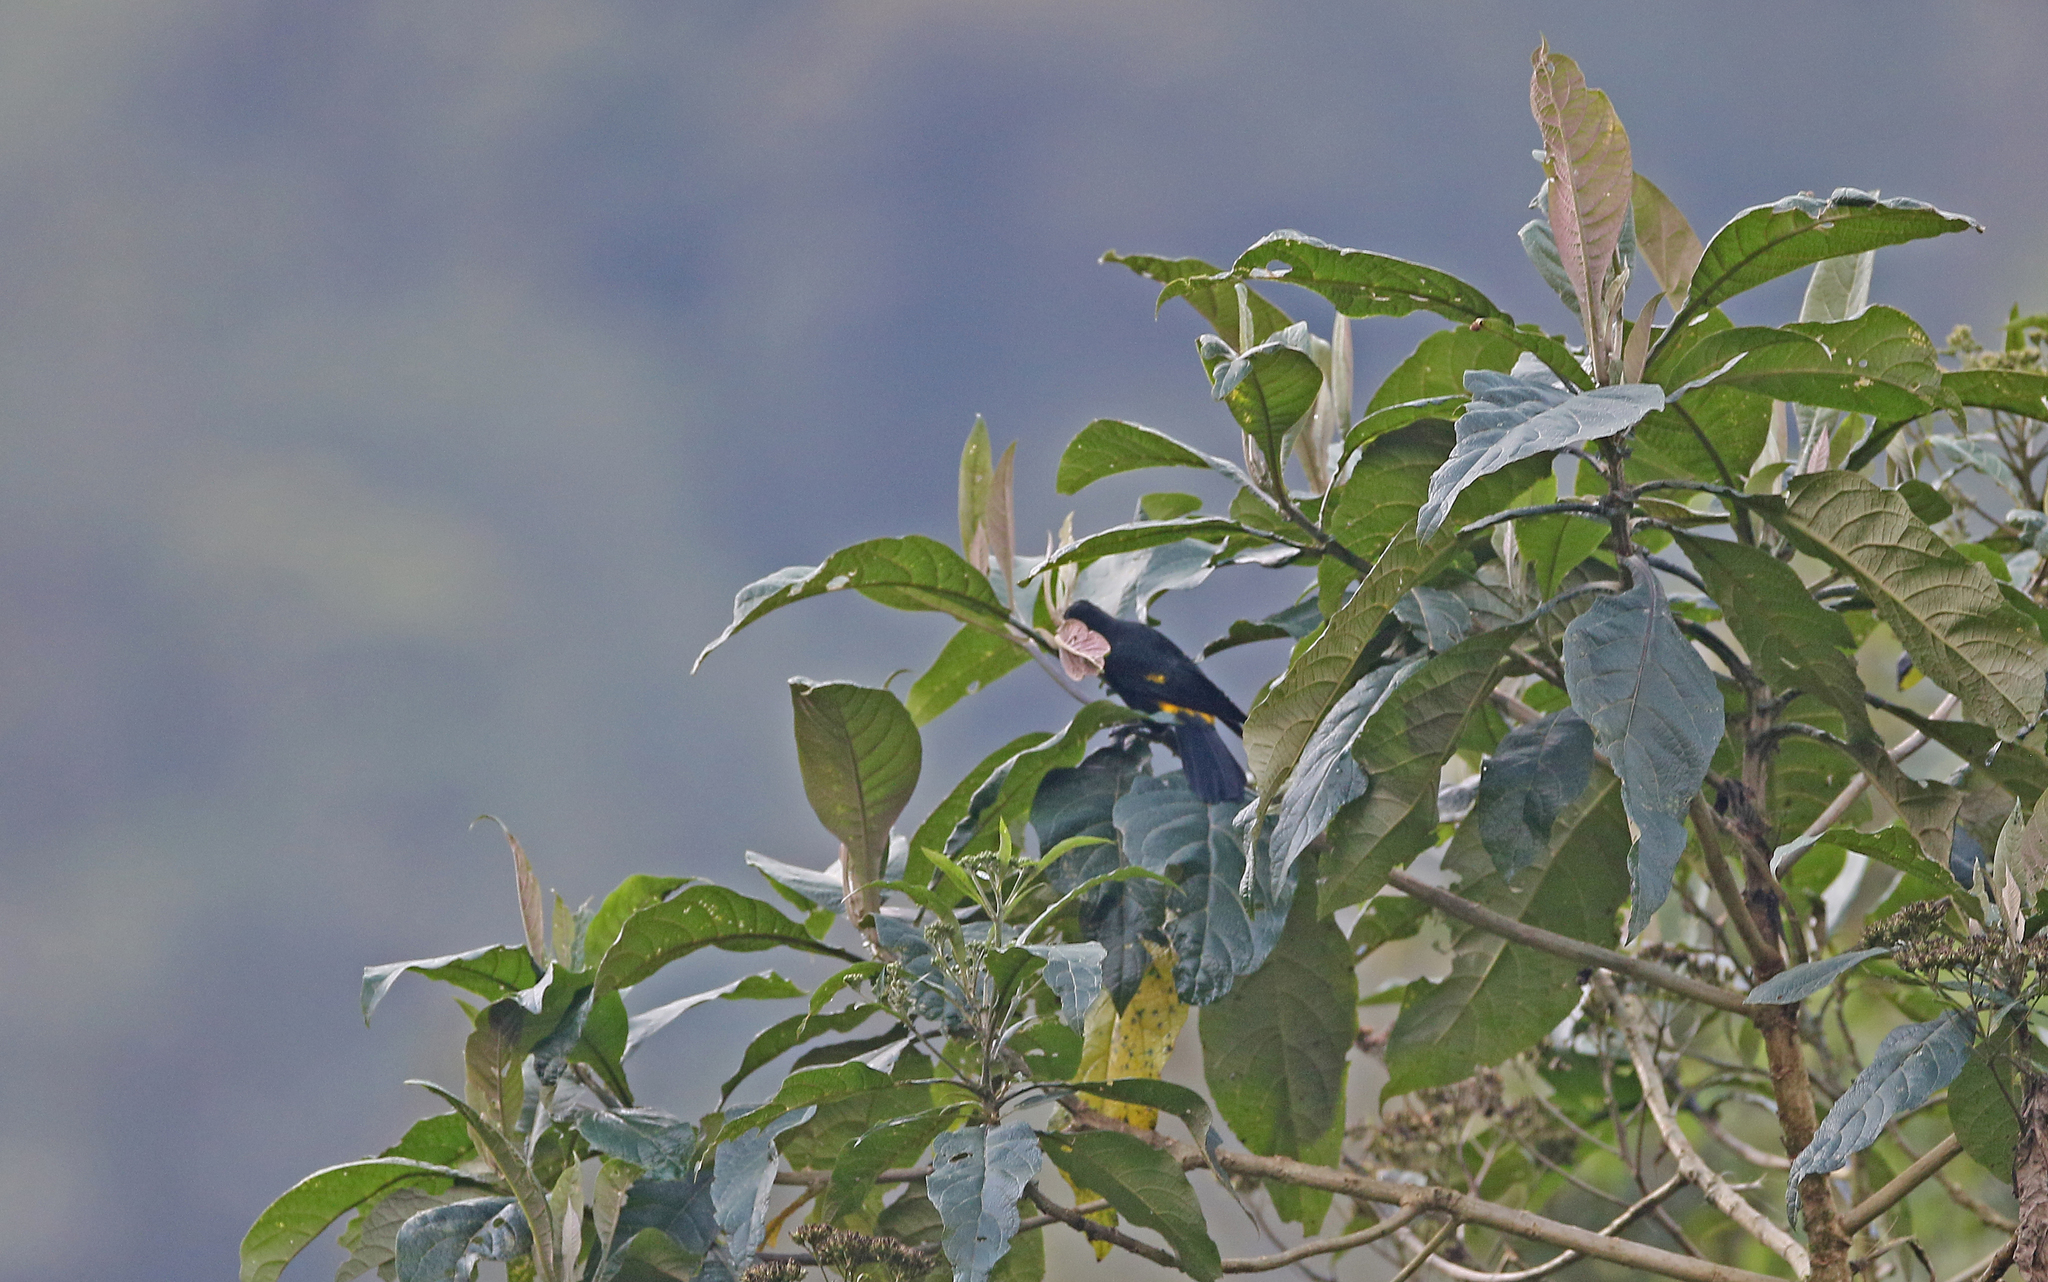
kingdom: Animalia
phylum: Chordata
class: Aves
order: Passeriformes
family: Icteridae
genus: Cacicus
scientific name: Cacicus chrysonotus
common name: Southern mountain cacique
